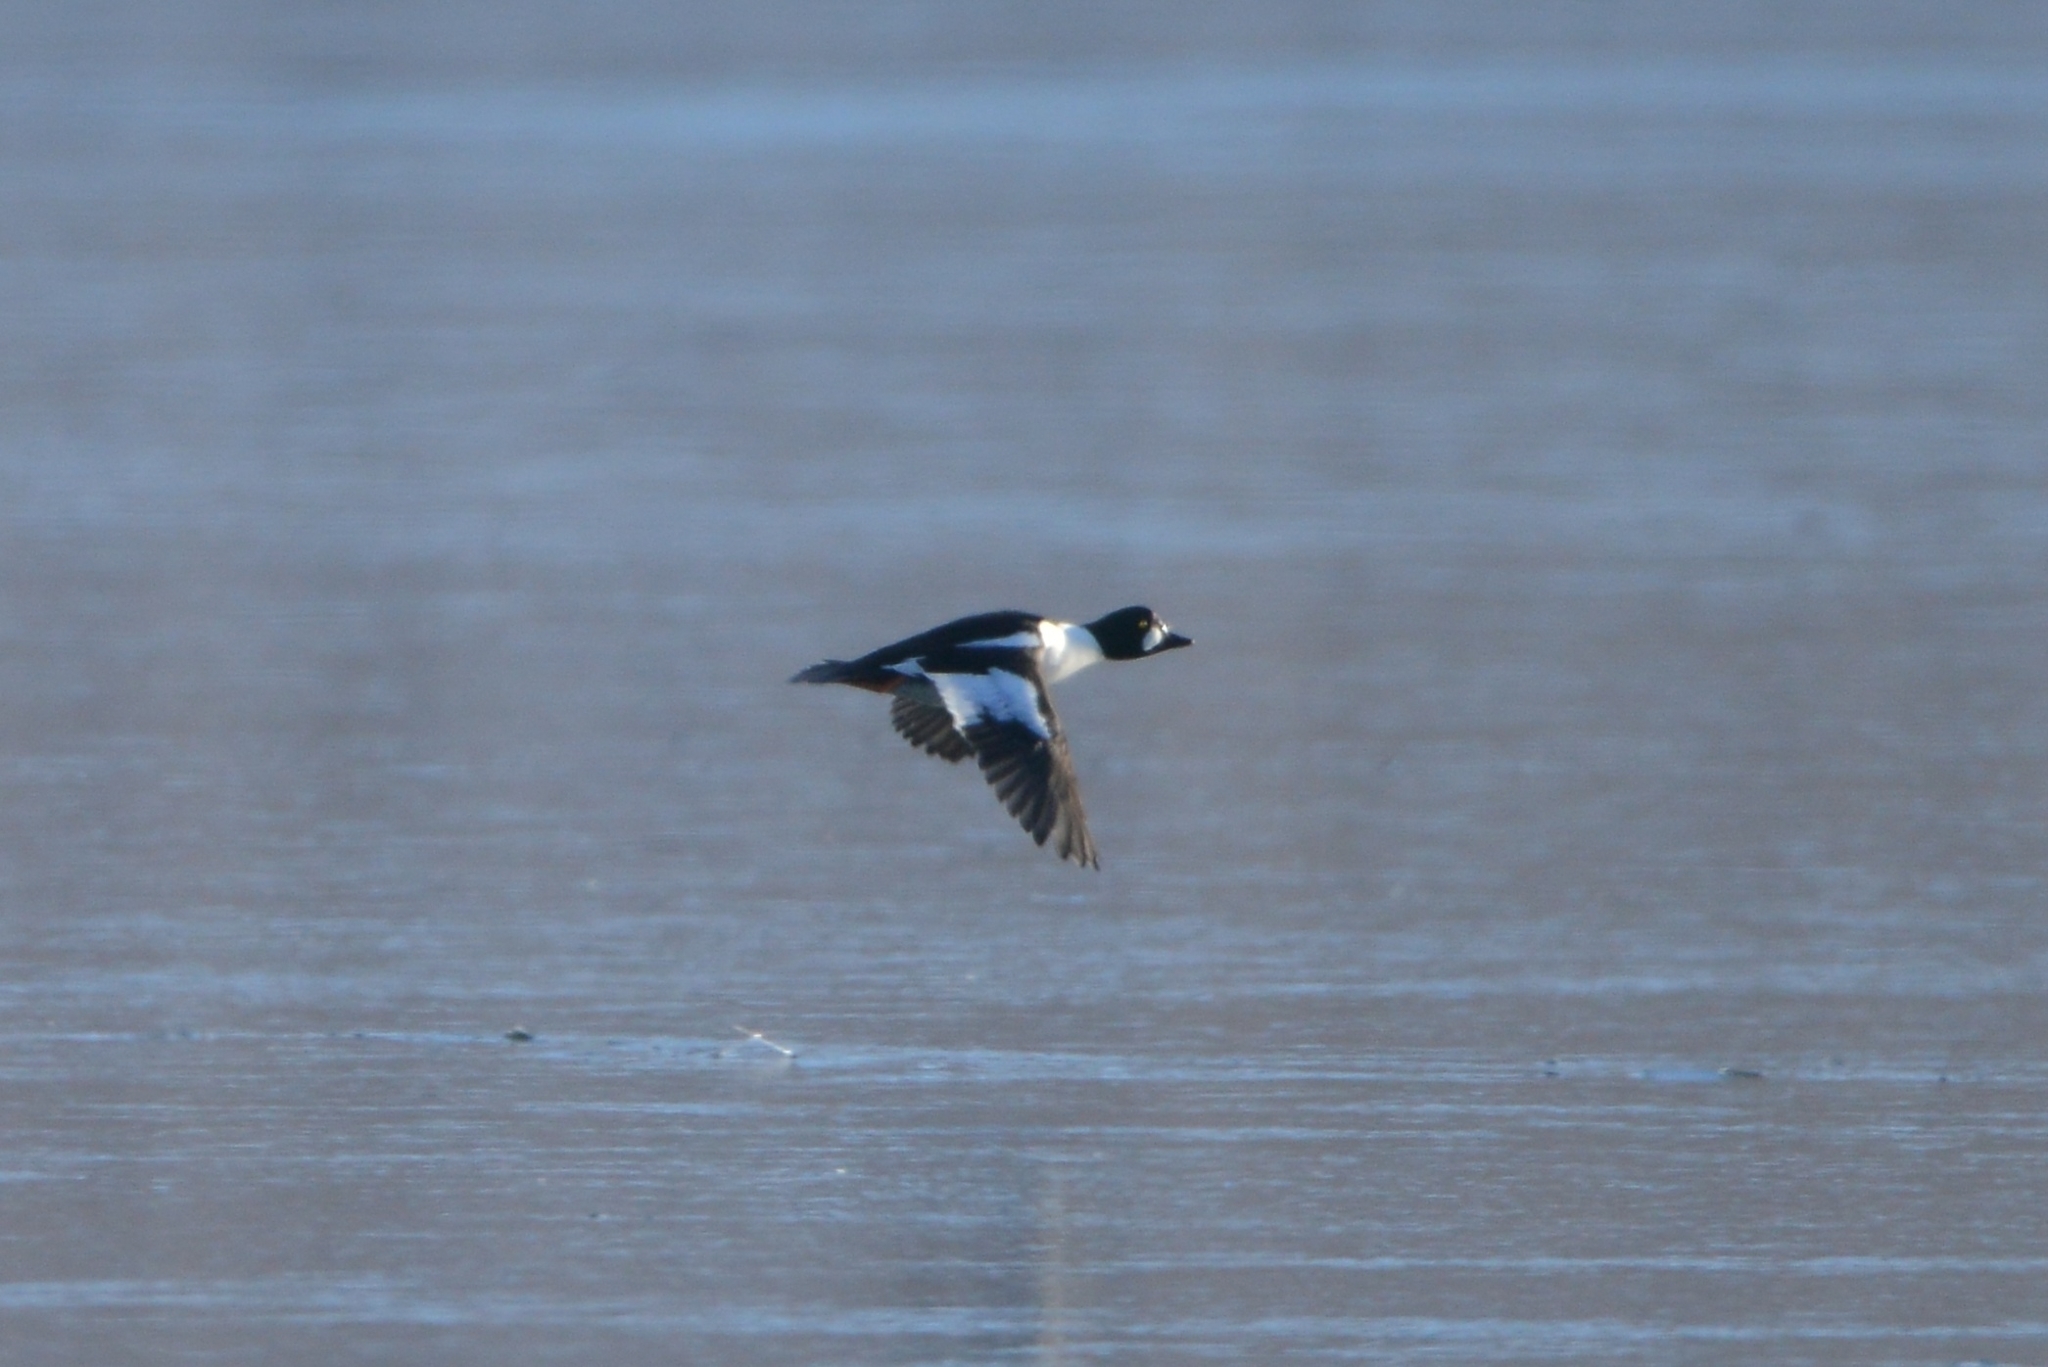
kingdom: Animalia
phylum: Chordata
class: Aves
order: Anseriformes
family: Anatidae
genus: Bucephala
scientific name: Bucephala clangula
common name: Common goldeneye
